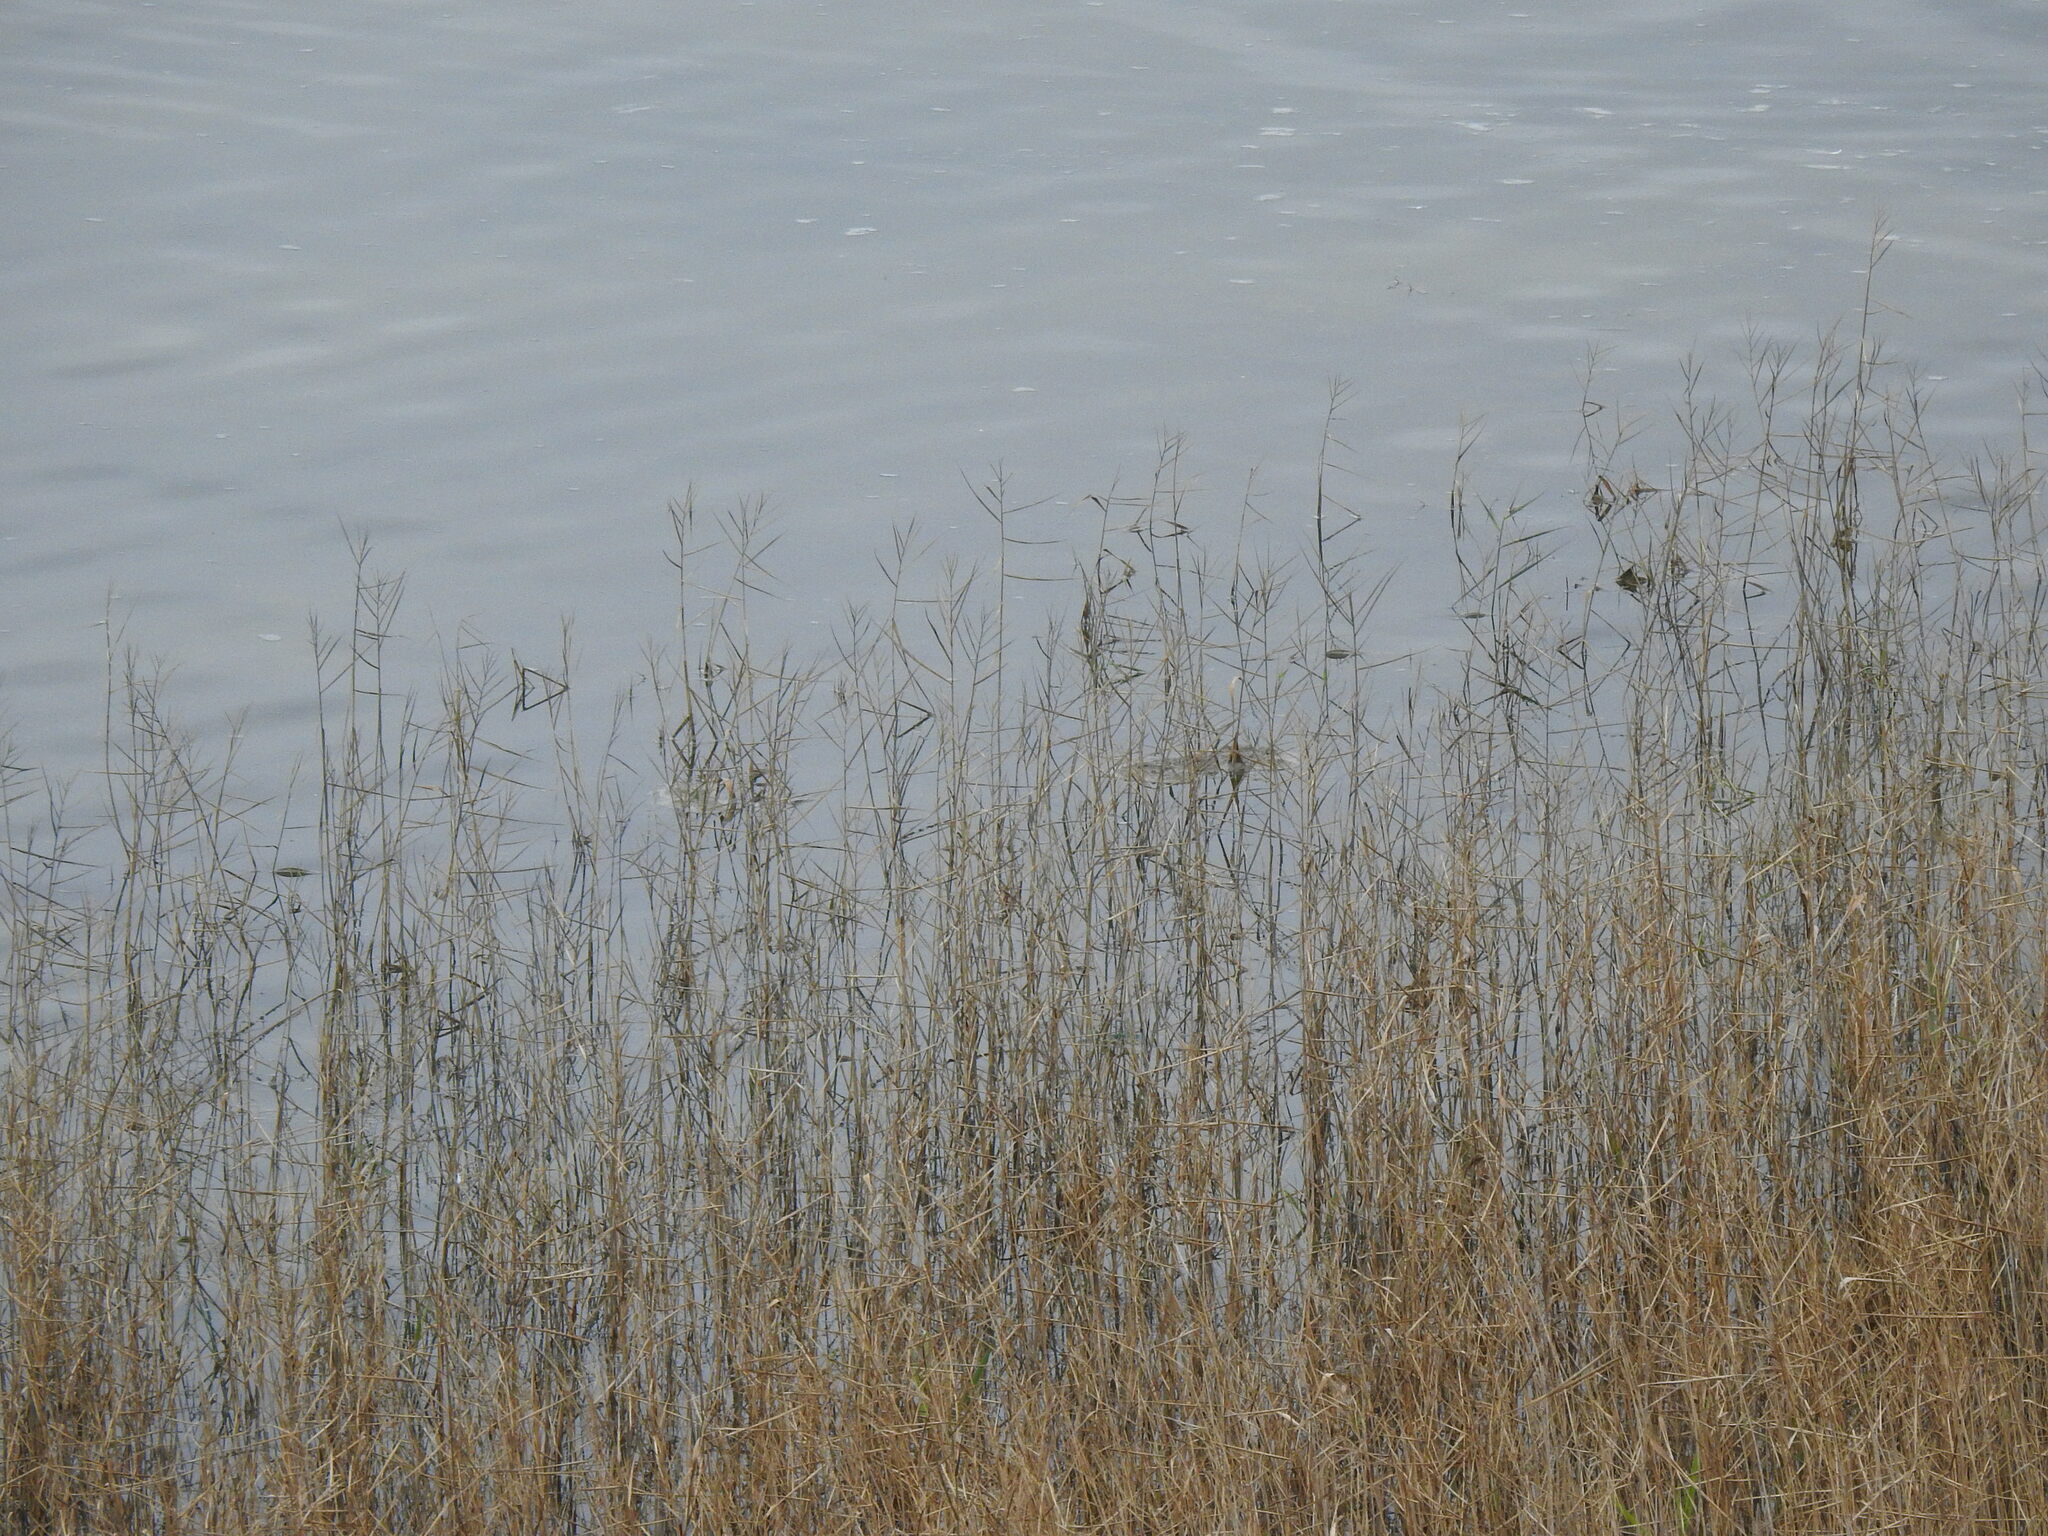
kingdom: Plantae
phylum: Tracheophyta
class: Liliopsida
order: Poales
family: Poaceae
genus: Phragmites
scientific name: Phragmites australis
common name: Common reed
